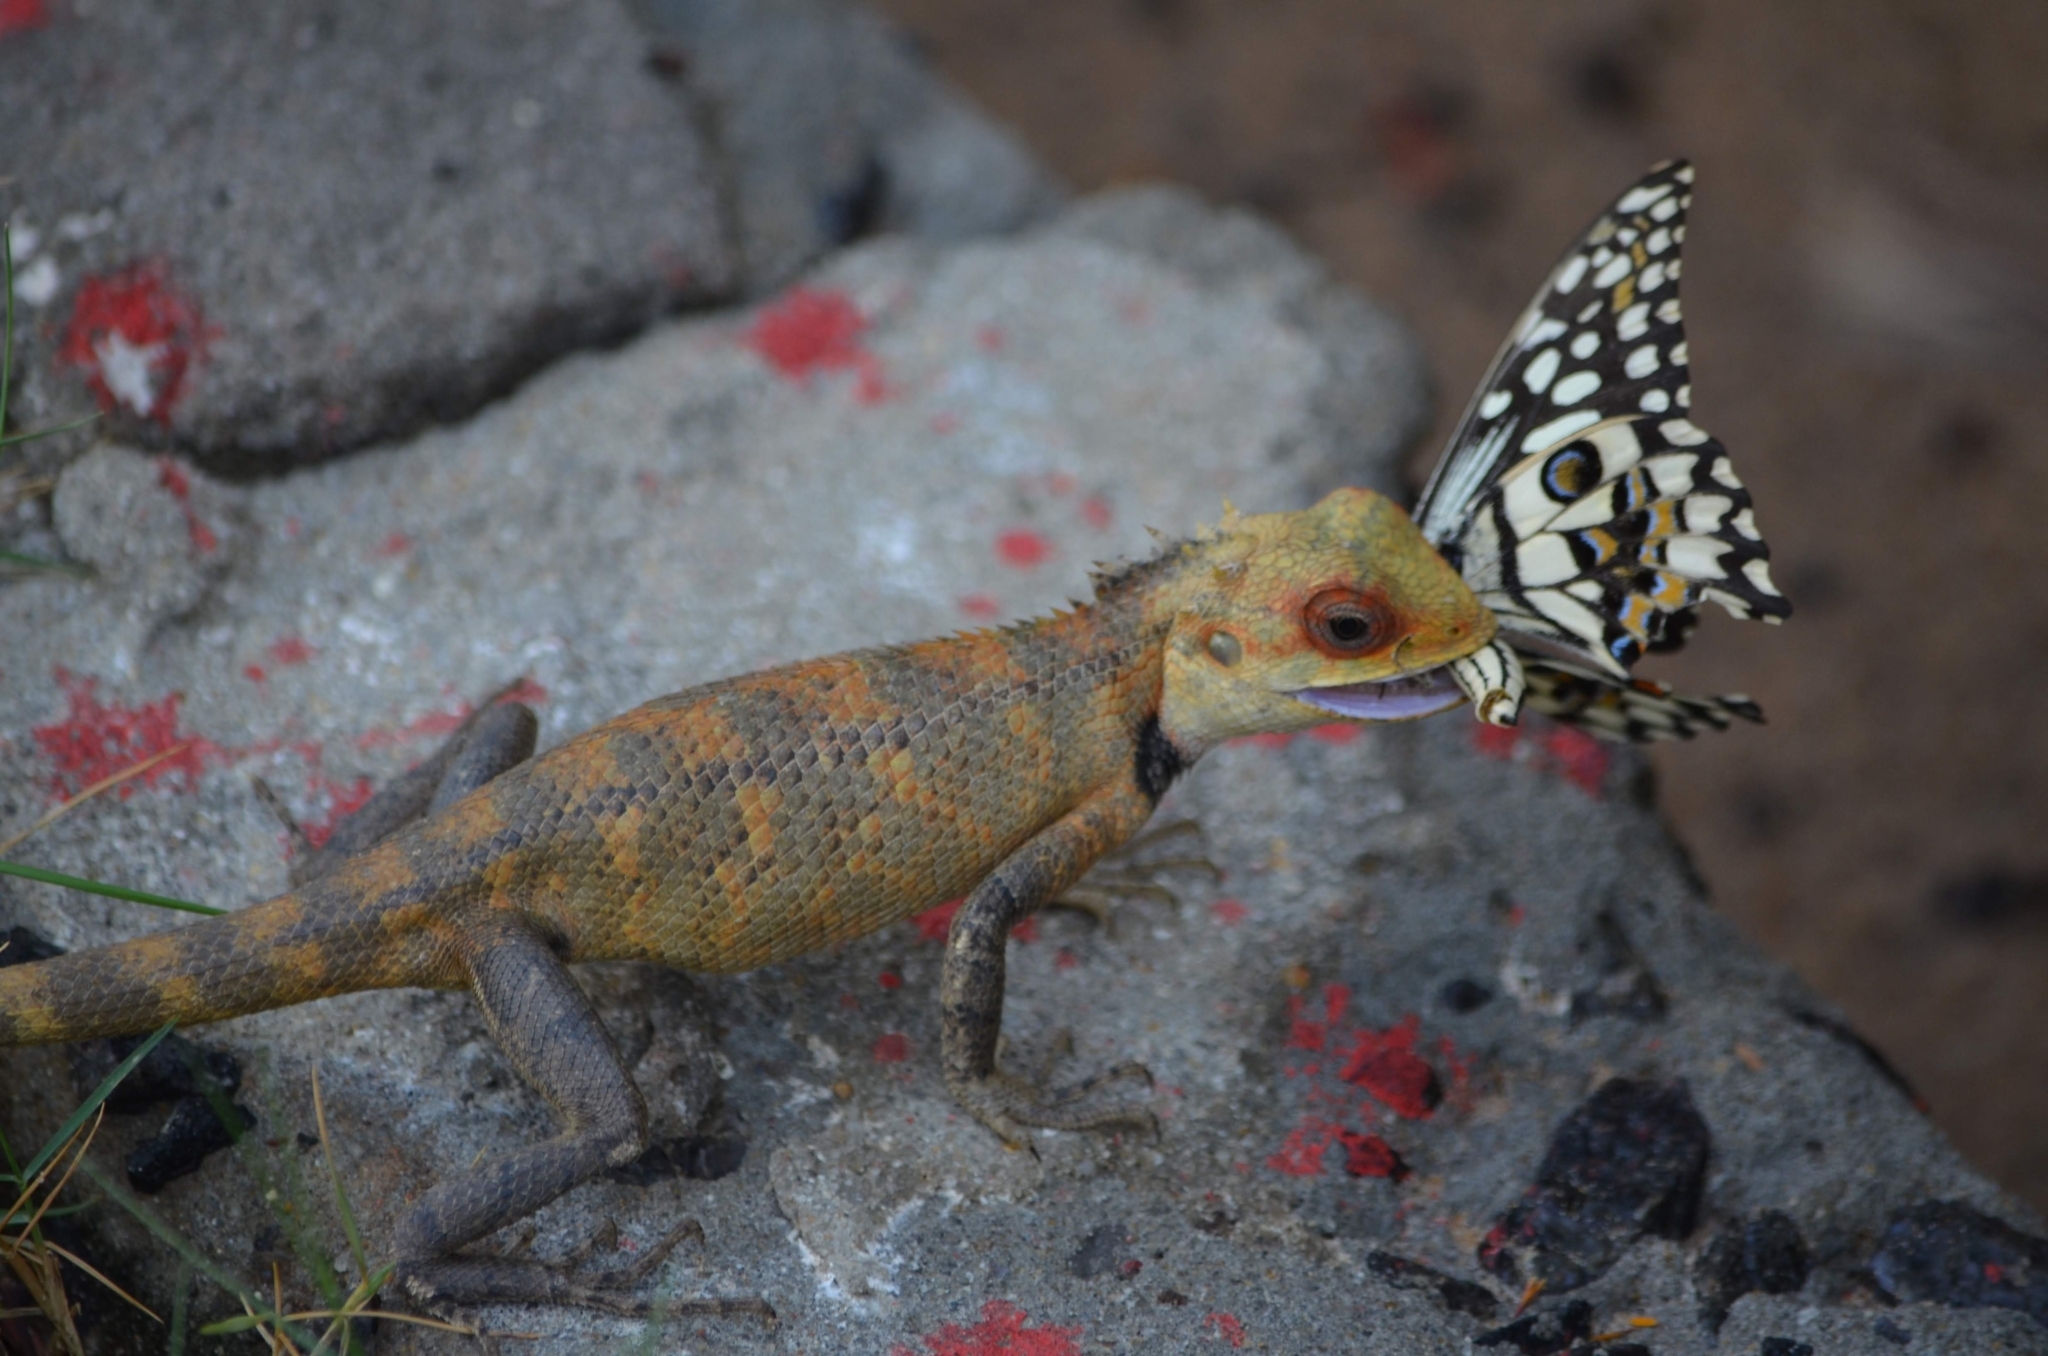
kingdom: Animalia
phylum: Arthropoda
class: Insecta
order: Lepidoptera
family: Papilionidae
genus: Papilio
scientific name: Papilio demoleus
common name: Lime butterfly
